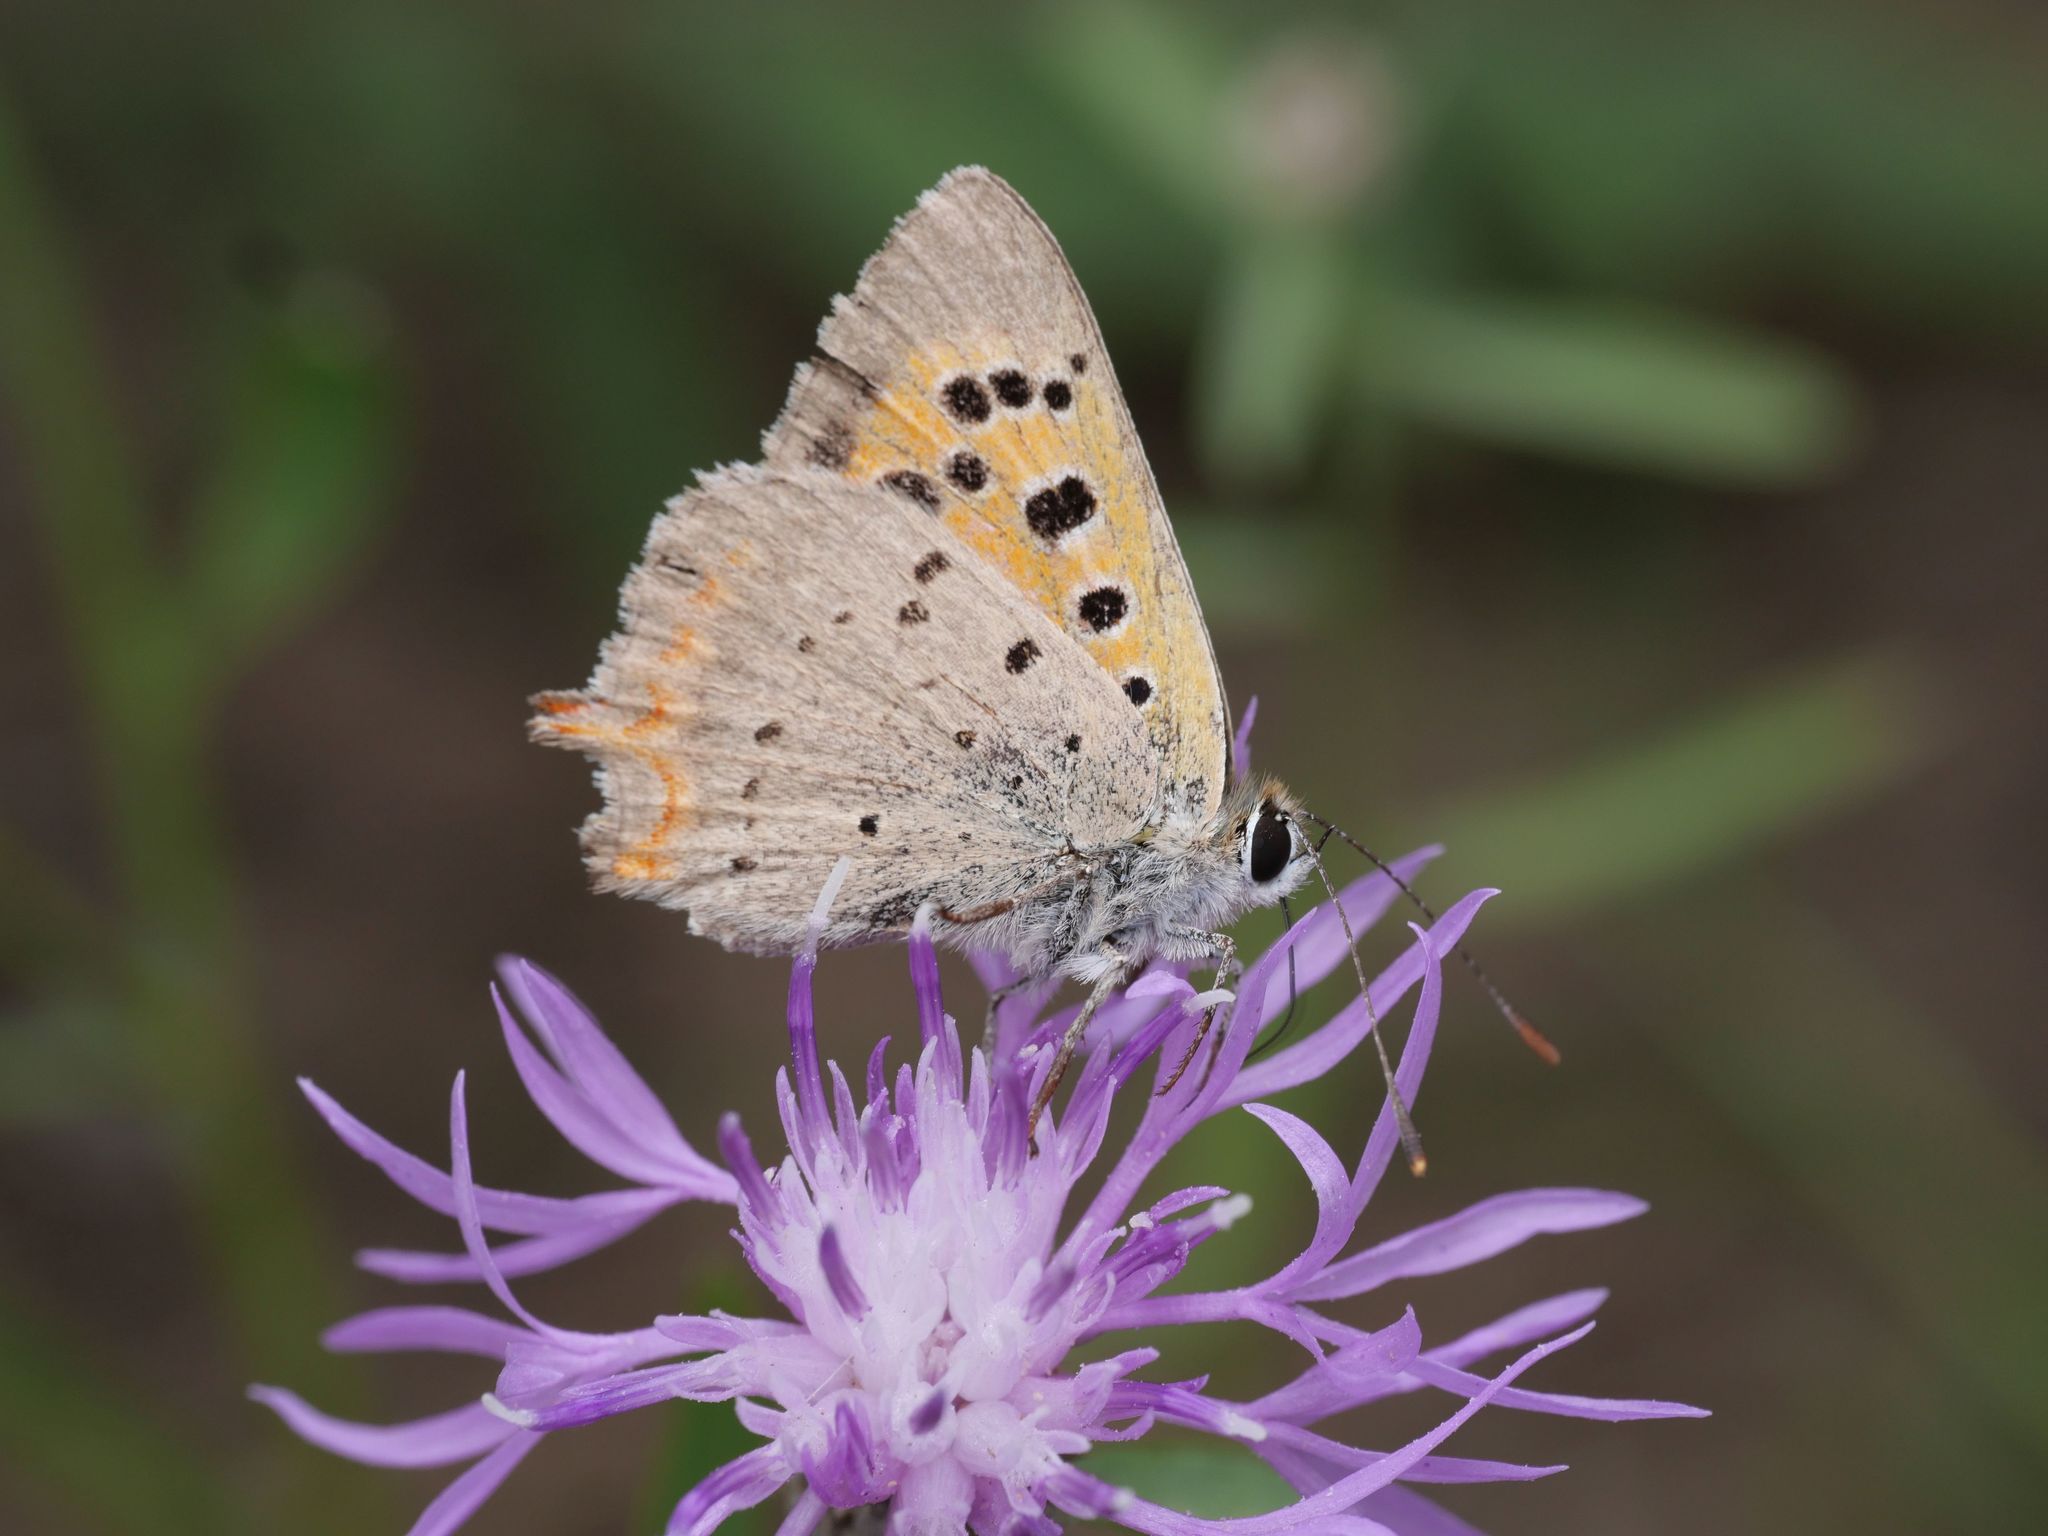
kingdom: Animalia
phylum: Arthropoda
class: Insecta
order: Lepidoptera
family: Lycaenidae
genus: Lycaena
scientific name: Lycaena phlaeas
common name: Small copper
